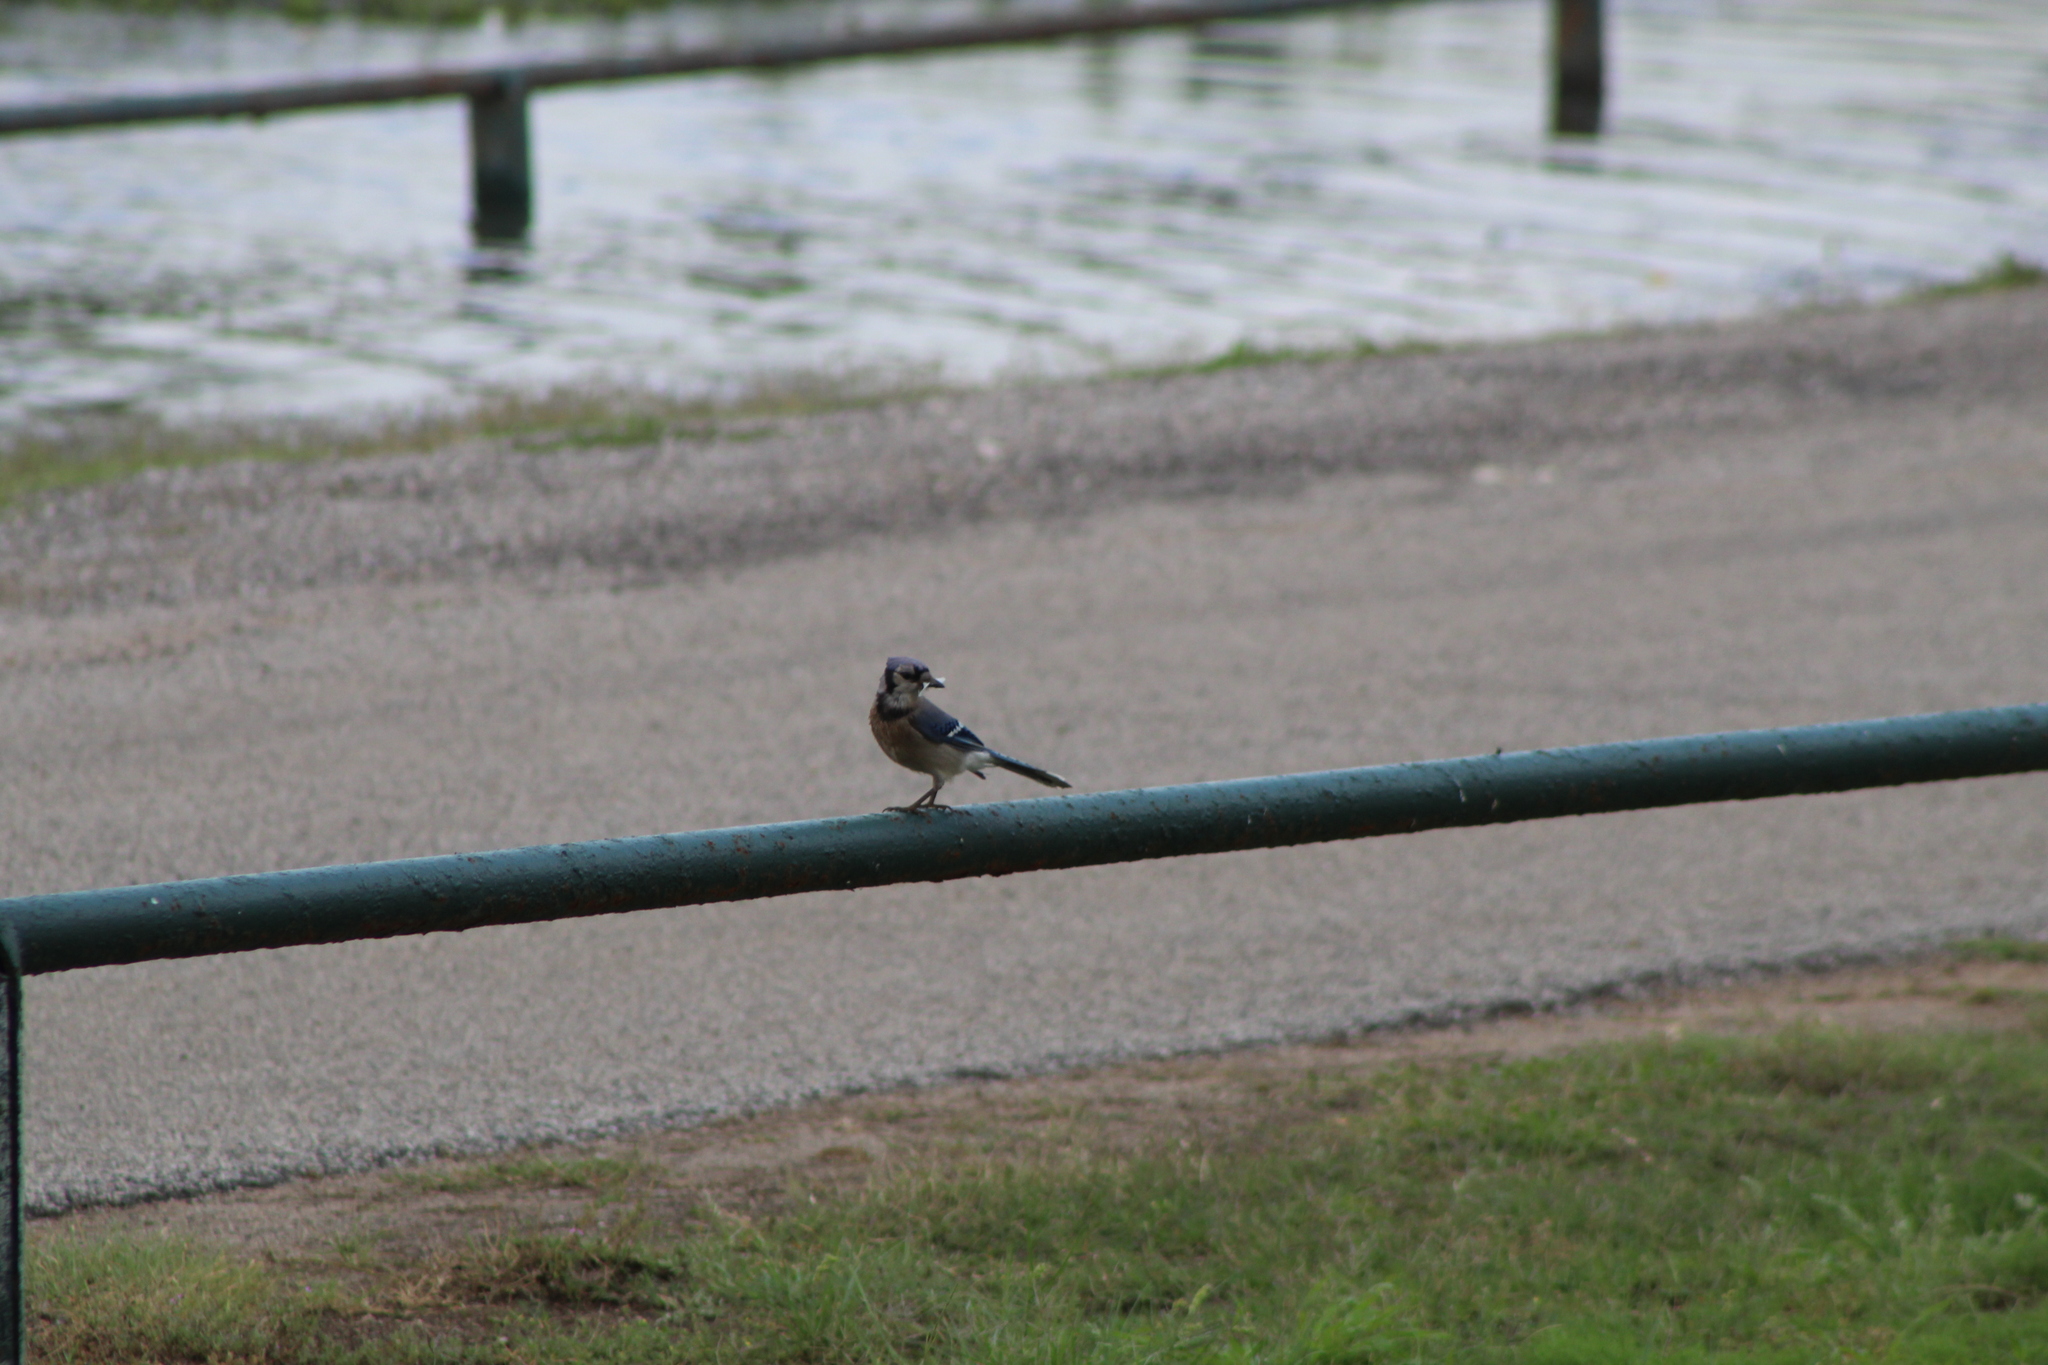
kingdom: Animalia
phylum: Chordata
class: Aves
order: Passeriformes
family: Corvidae
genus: Cyanocitta
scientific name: Cyanocitta cristata
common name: Blue jay
